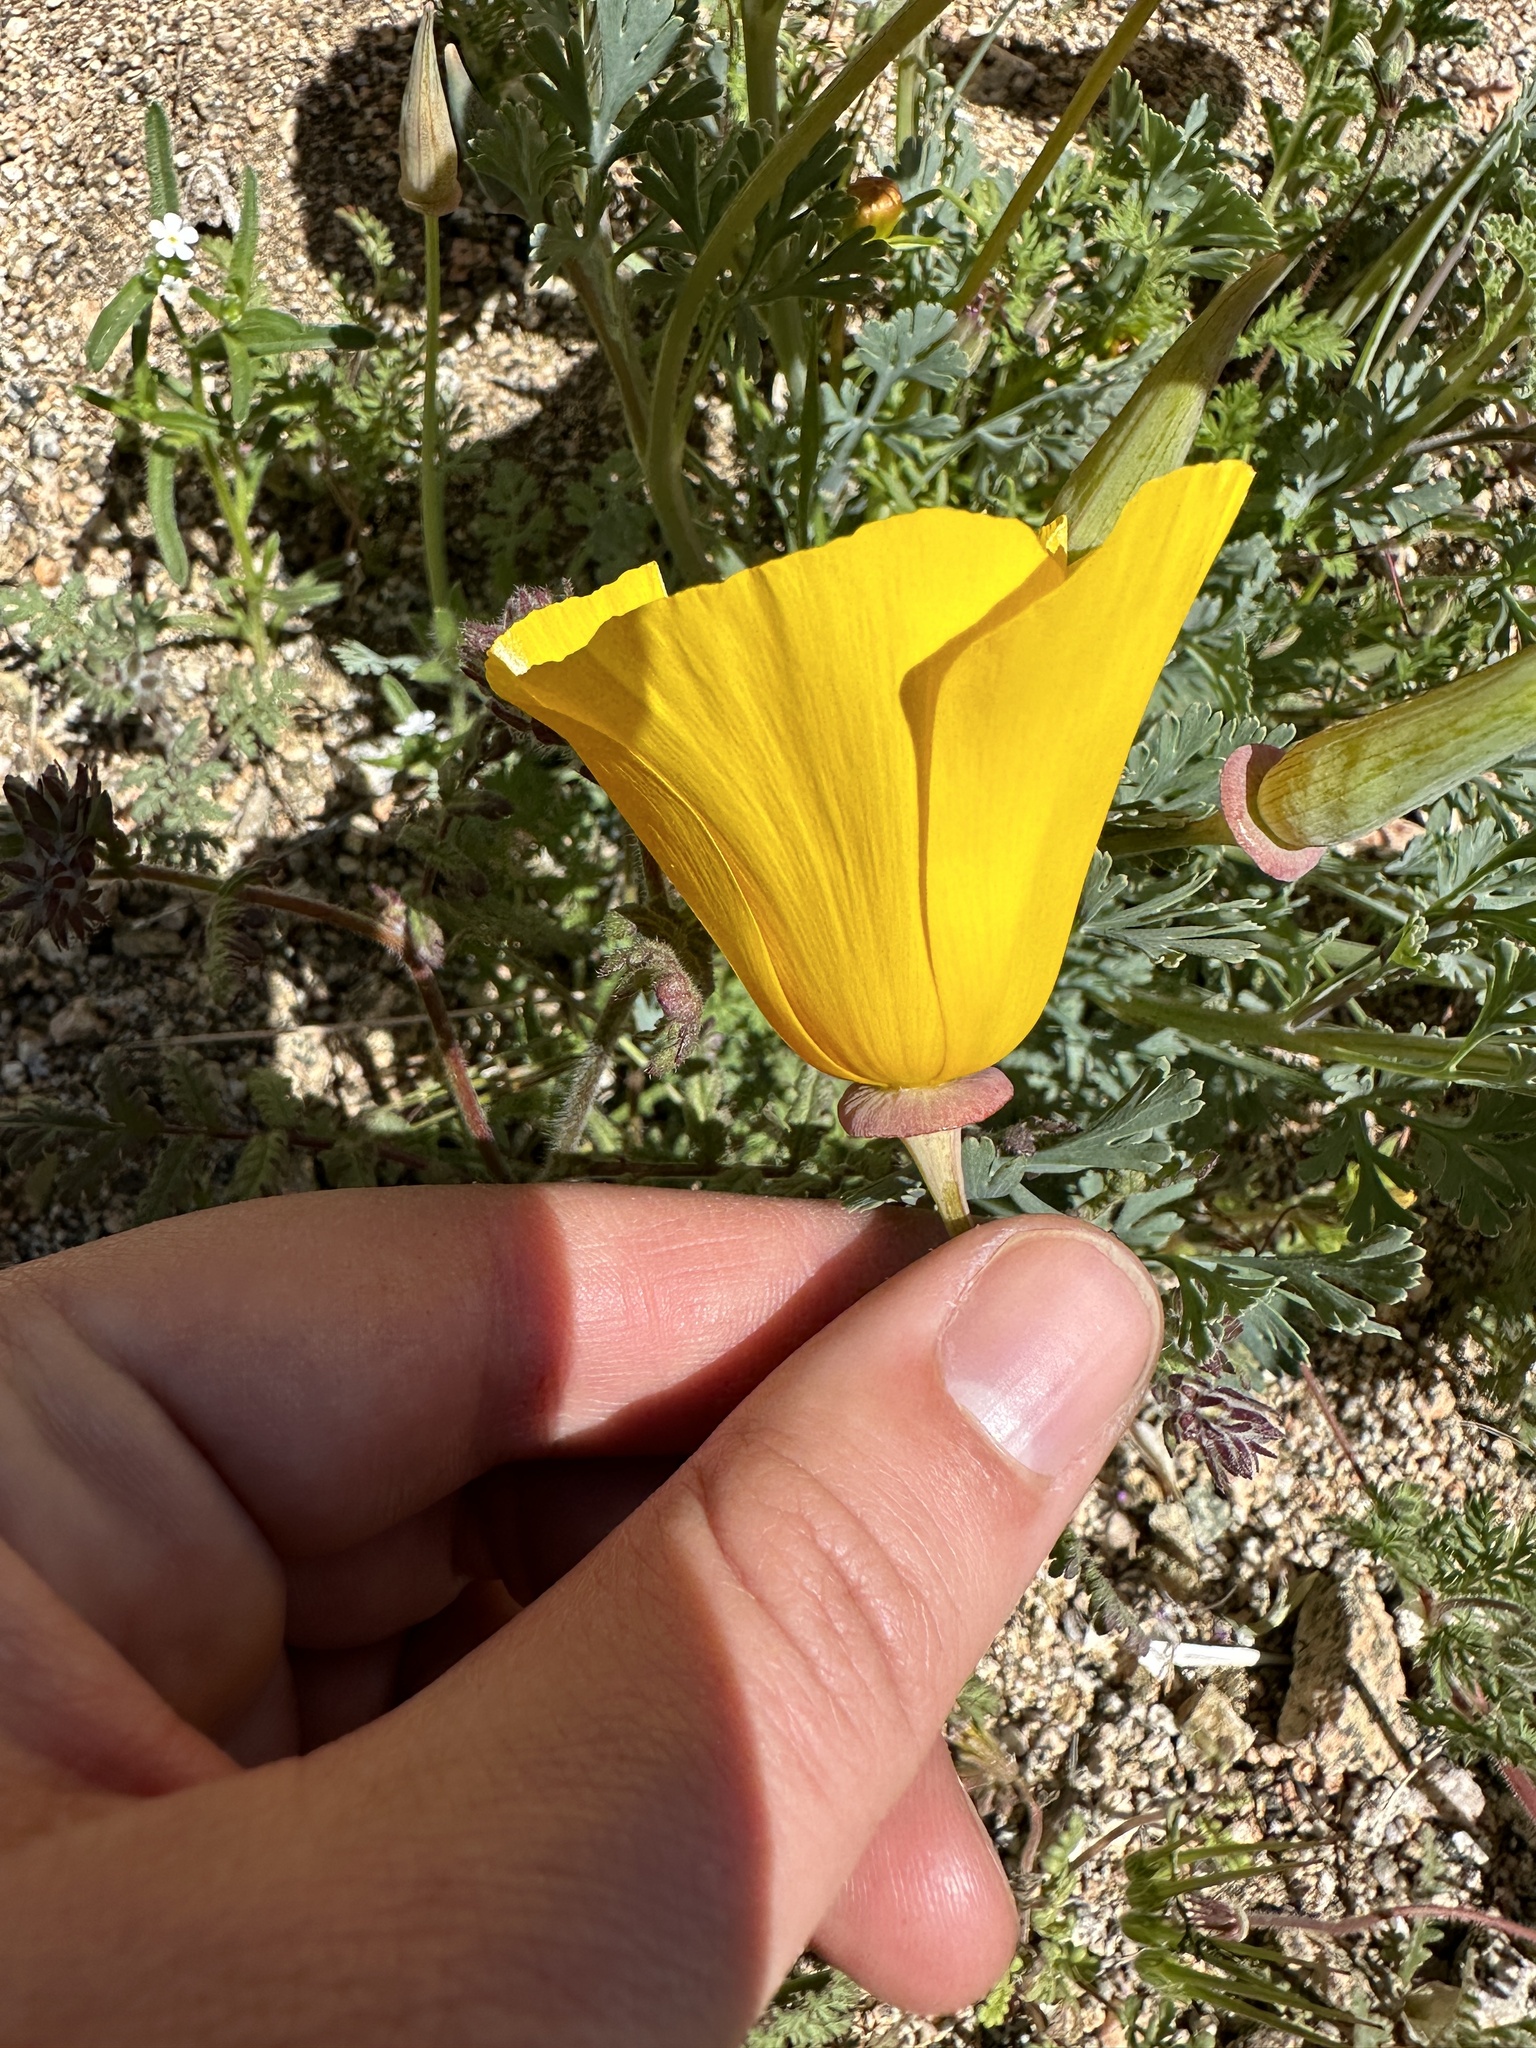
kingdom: Plantae
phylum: Tracheophyta
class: Magnoliopsida
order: Ranunculales
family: Papaveraceae
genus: Eschscholzia
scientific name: Eschscholzia californica
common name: California poppy
